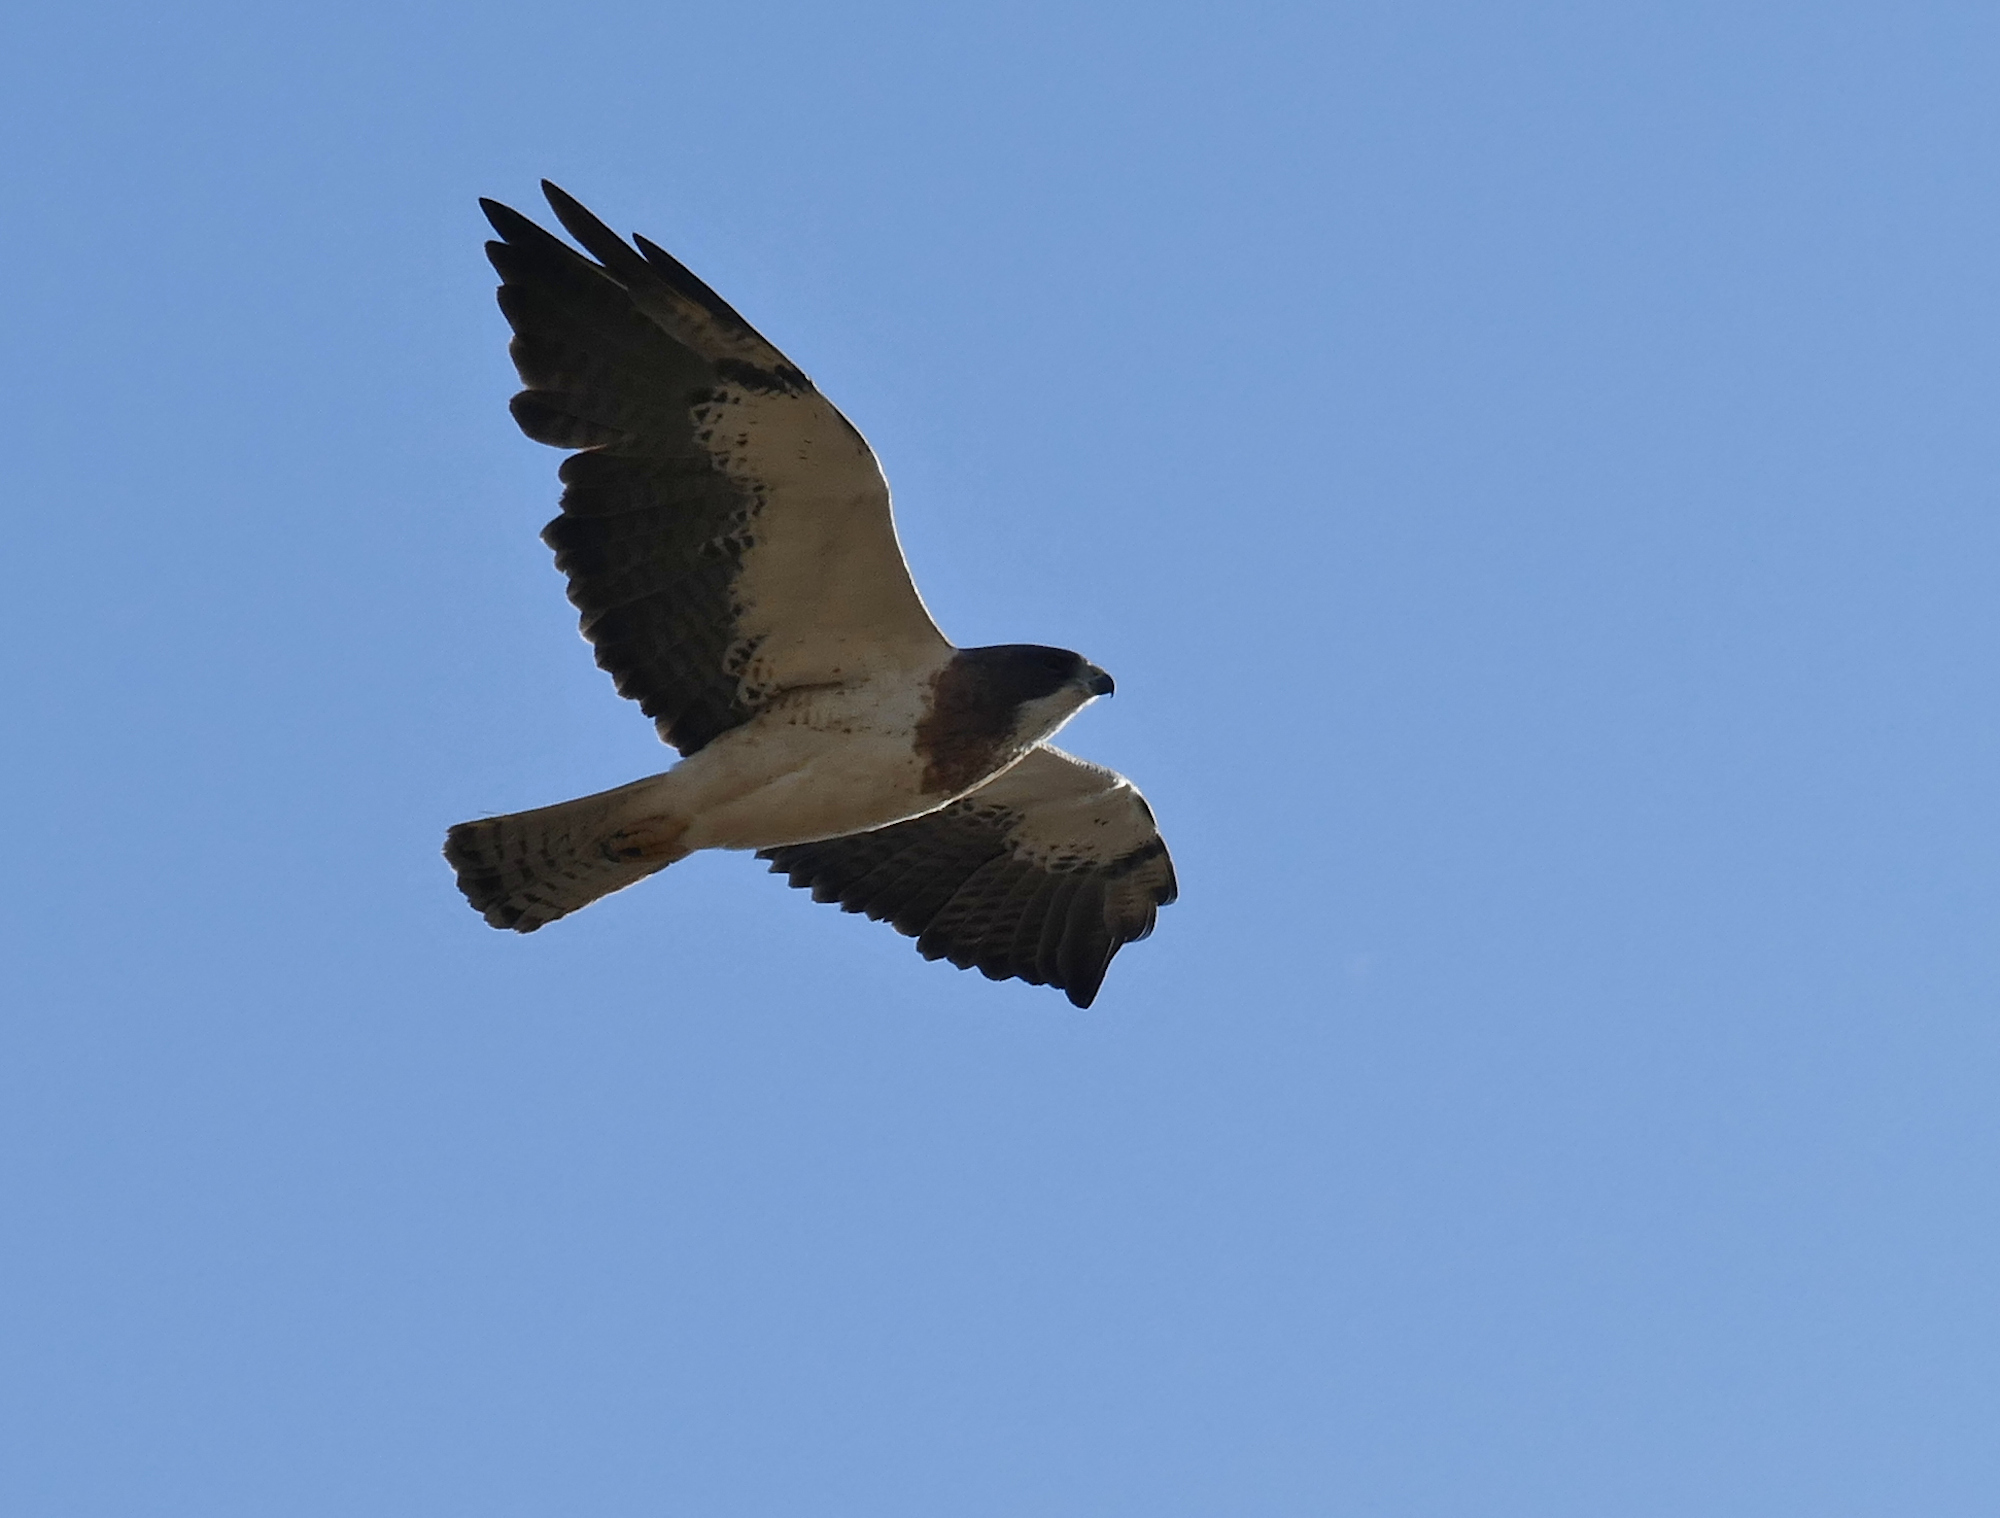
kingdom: Animalia
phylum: Chordata
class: Aves
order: Accipitriformes
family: Accipitridae
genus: Buteo
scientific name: Buteo swainsoni
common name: Swainson's hawk
